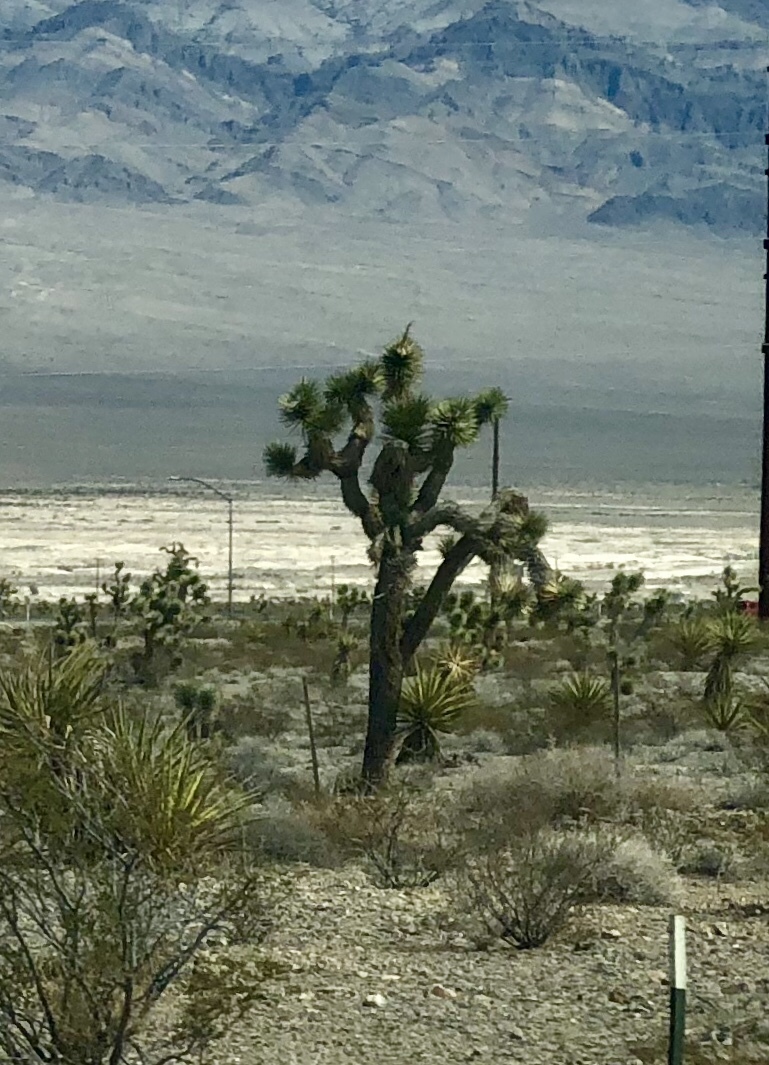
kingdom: Plantae
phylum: Tracheophyta
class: Liliopsida
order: Asparagales
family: Asparagaceae
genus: Yucca
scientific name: Yucca brevifolia
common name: Joshua tree
